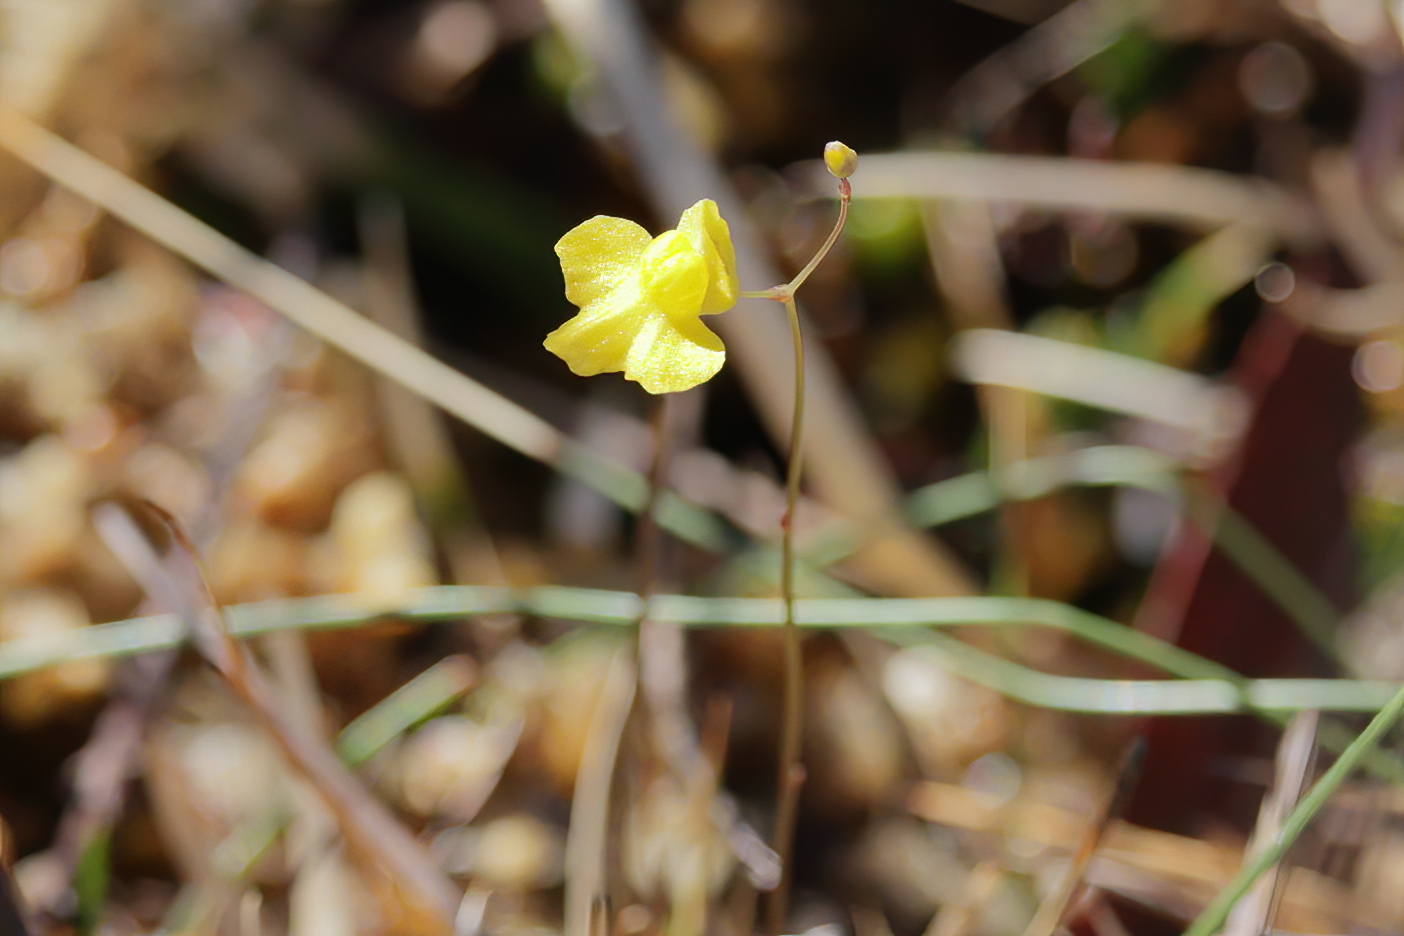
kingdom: Plantae
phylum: Tracheophyta
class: Magnoliopsida
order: Lamiales
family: Lentibulariaceae
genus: Utricularia
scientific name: Utricularia subulata
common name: Tiny bladderwort
